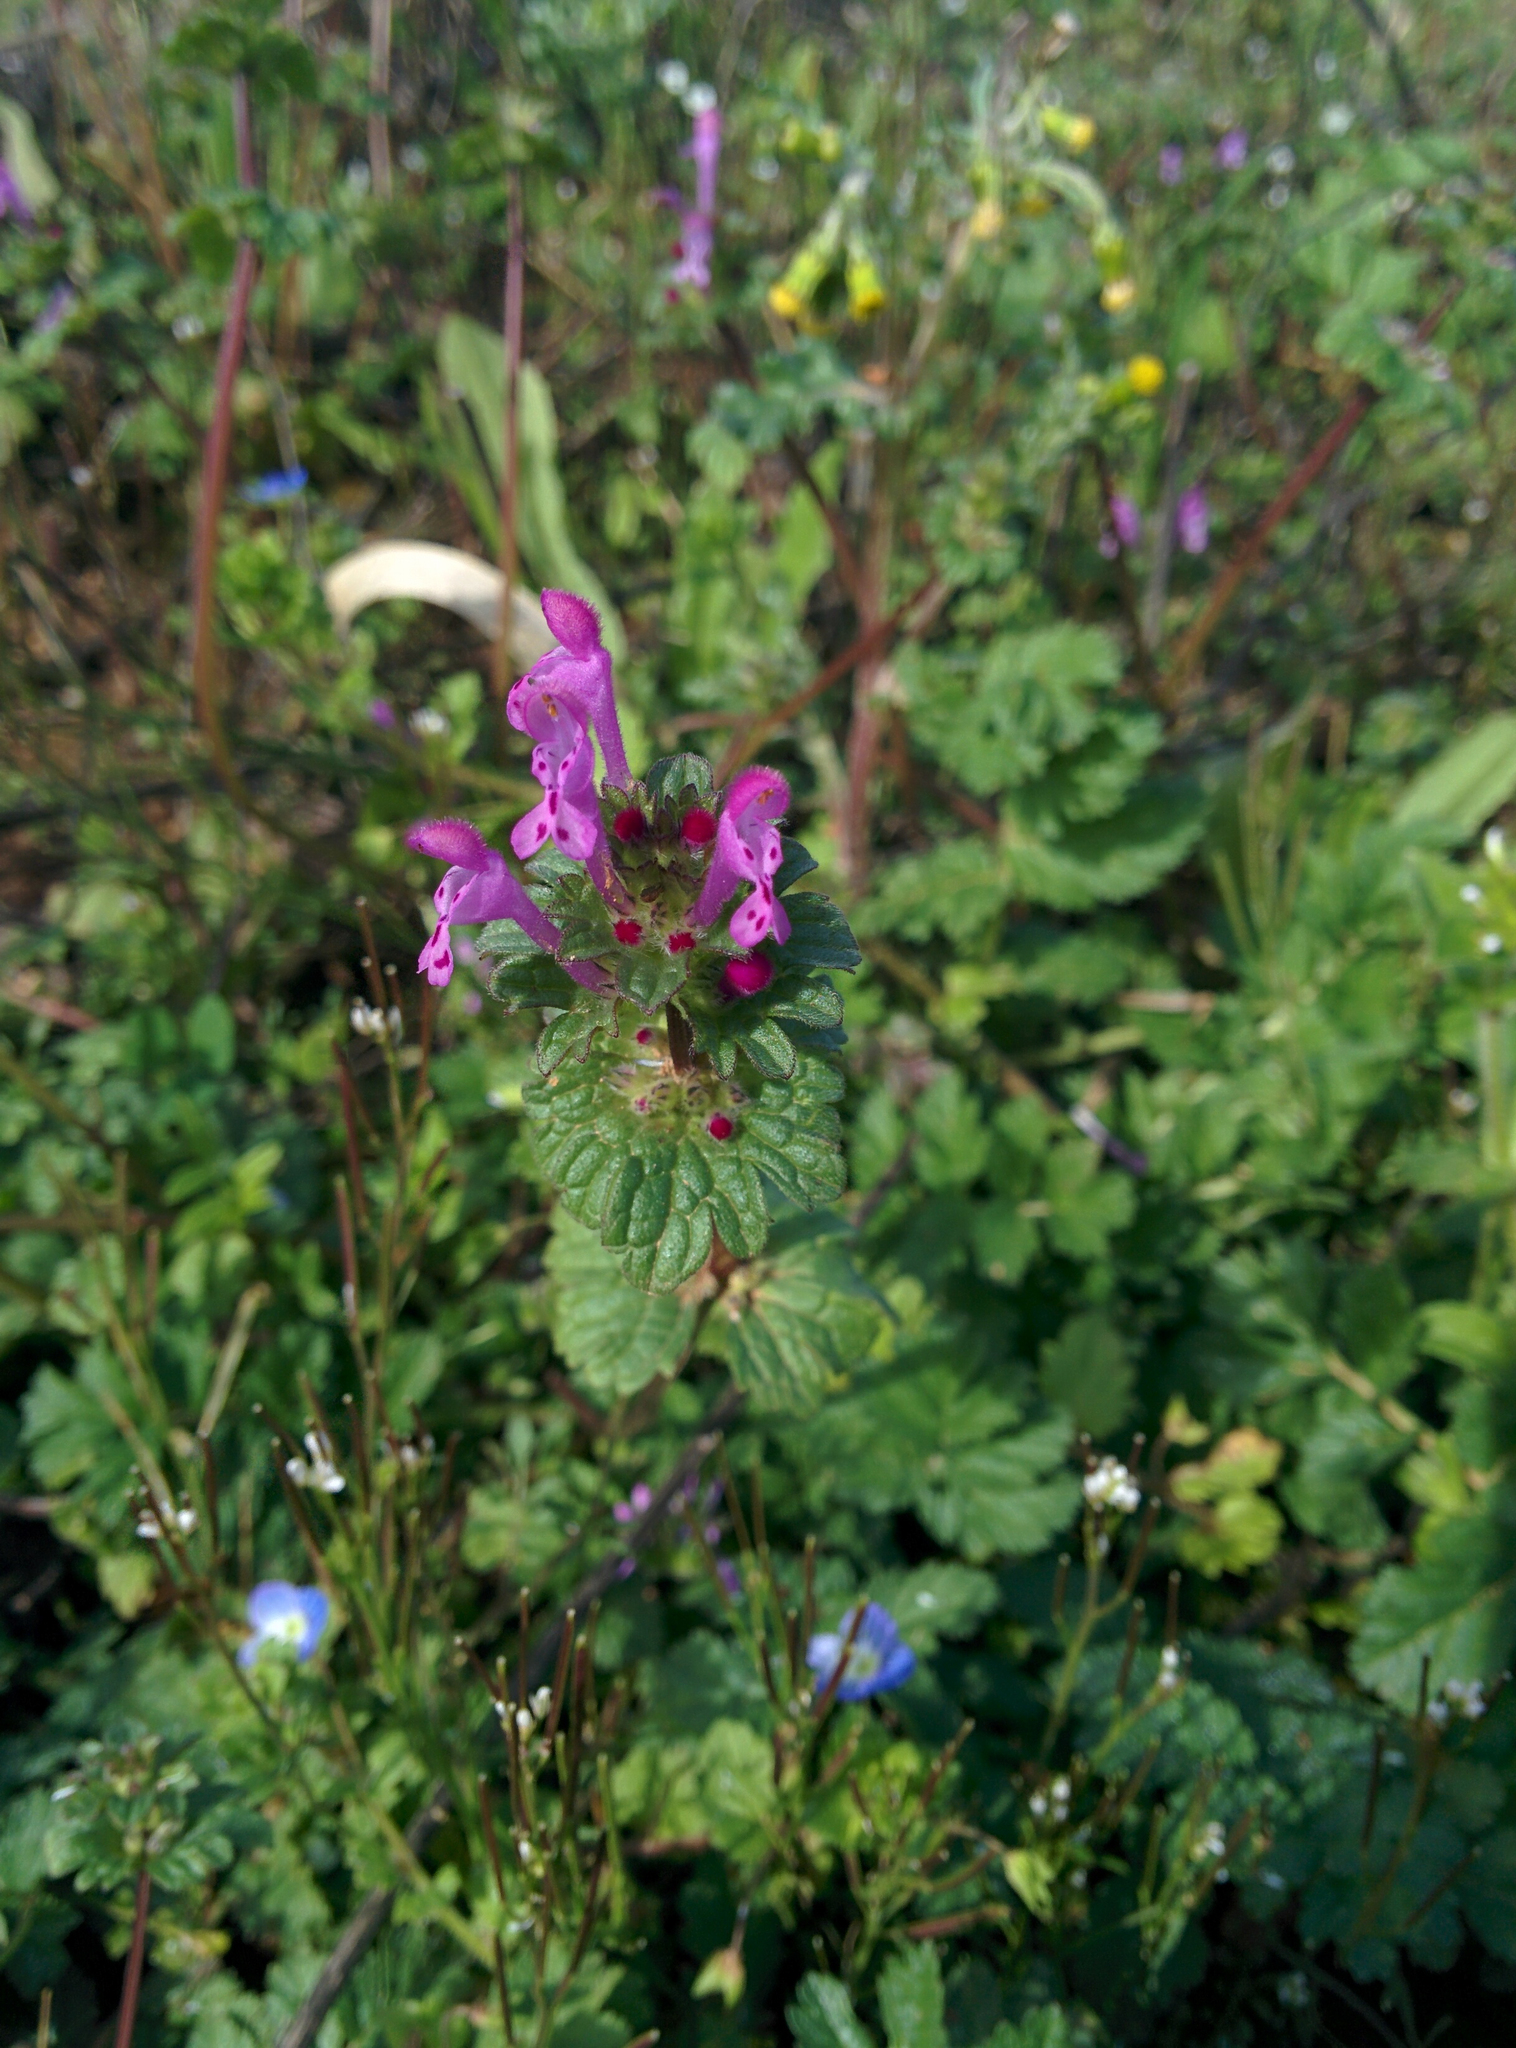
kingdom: Plantae
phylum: Tracheophyta
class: Magnoliopsida
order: Lamiales
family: Lamiaceae
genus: Lamium
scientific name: Lamium amplexicaule
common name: Henbit dead-nettle
